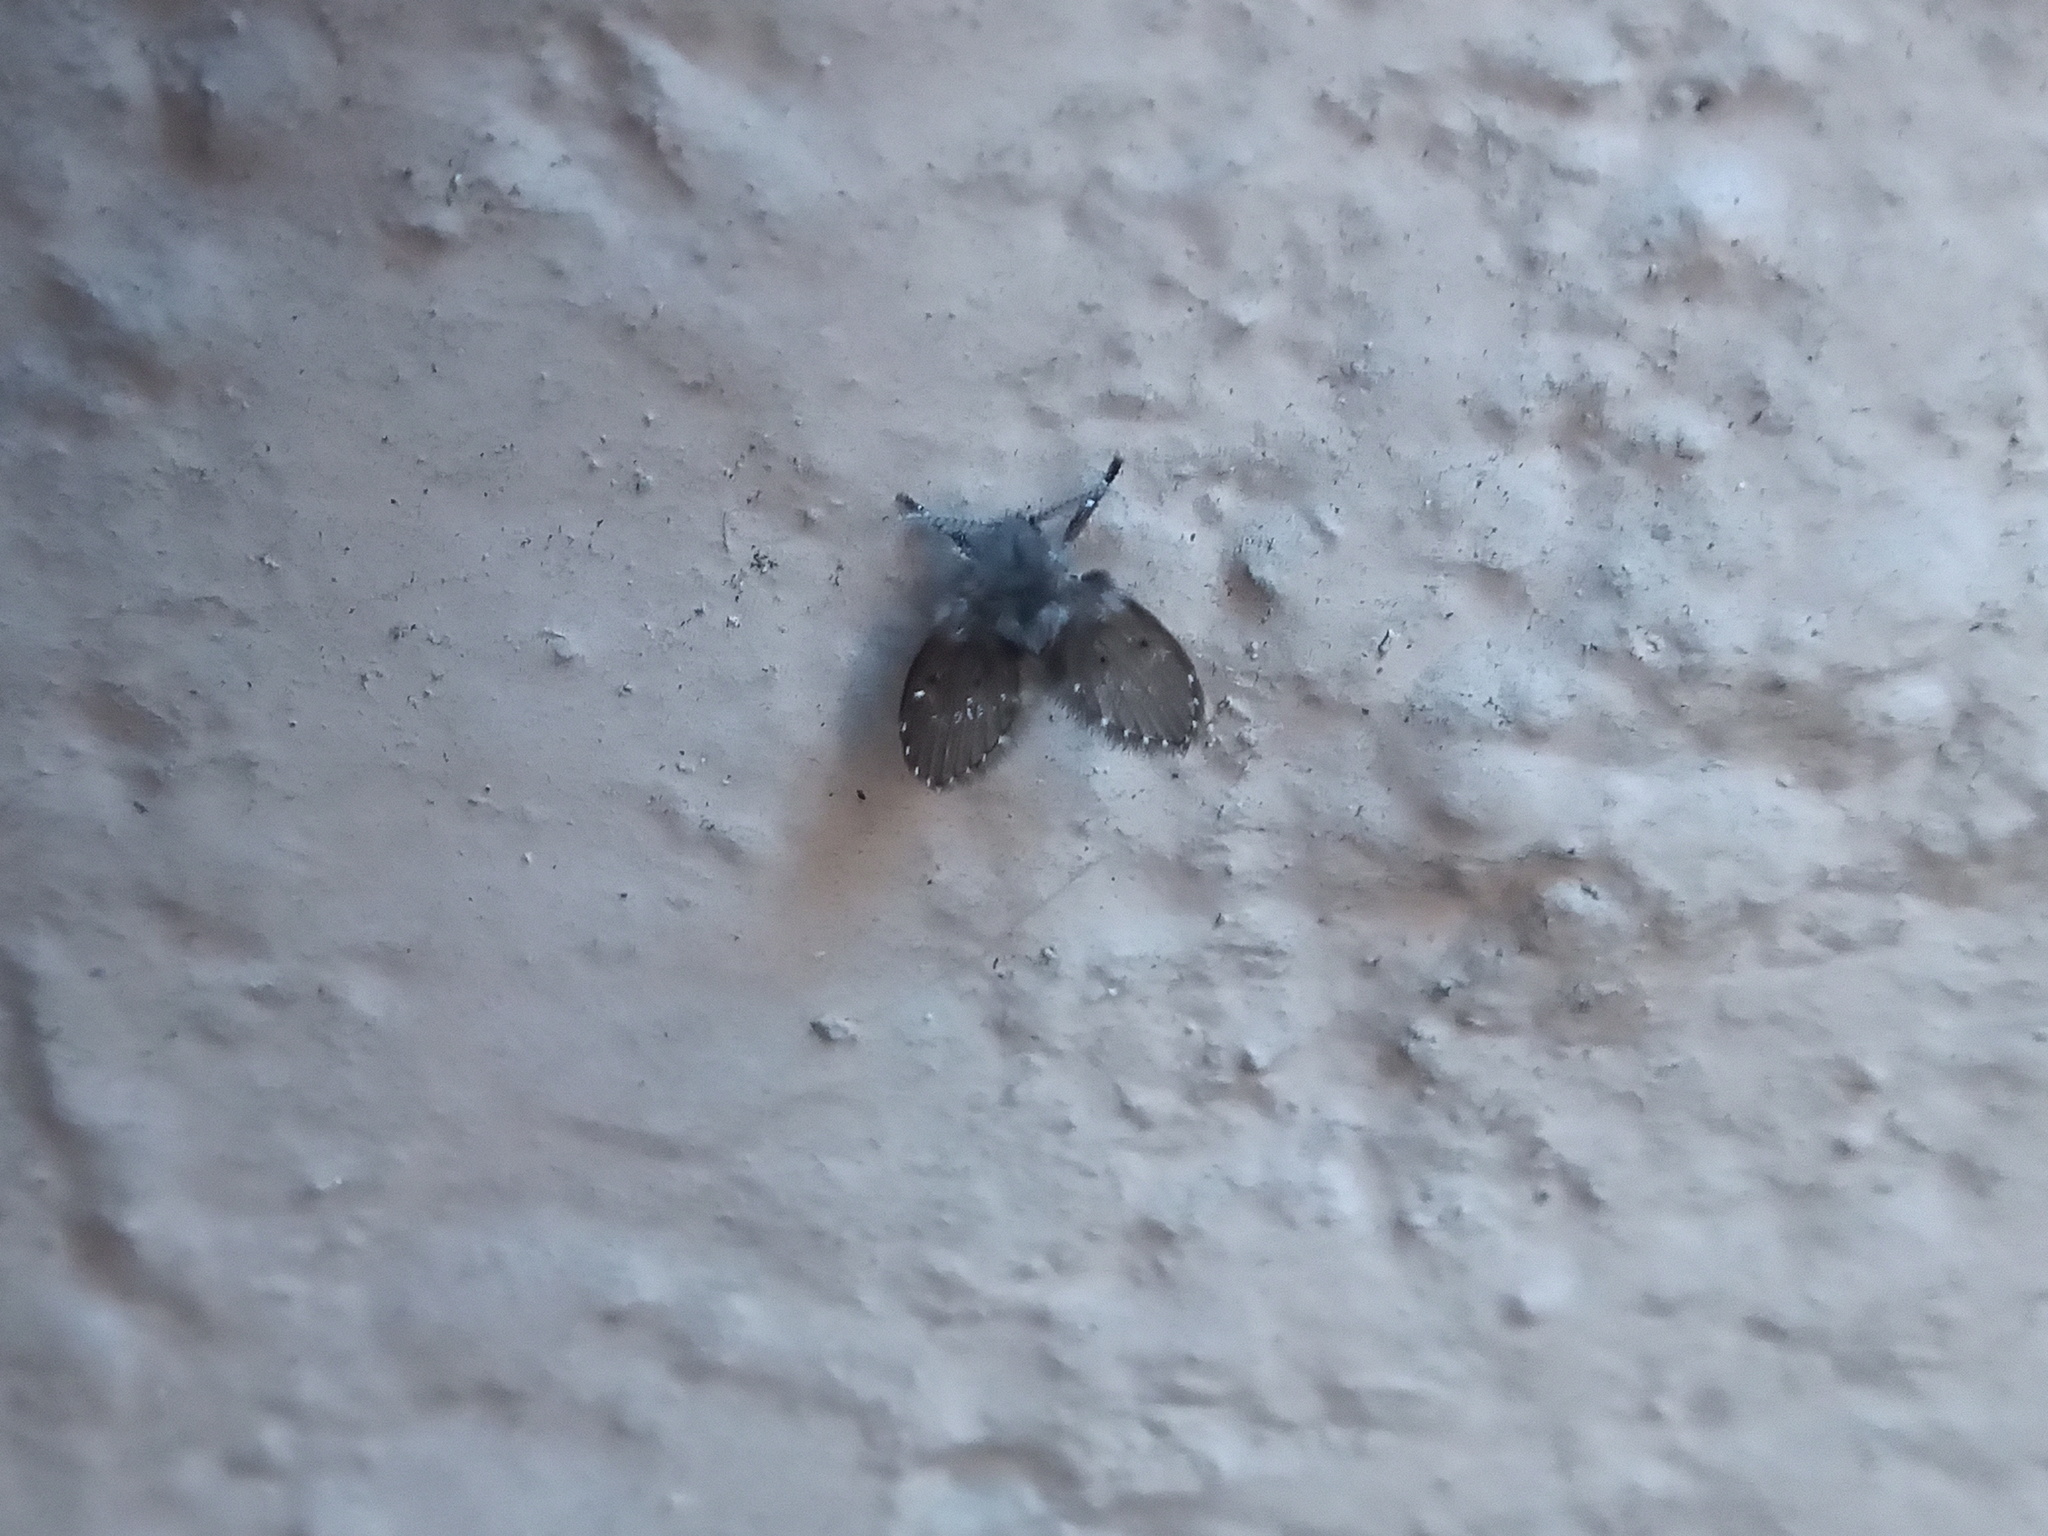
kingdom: Animalia
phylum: Arthropoda
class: Insecta
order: Diptera
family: Psychodidae
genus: Clogmia
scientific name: Clogmia albipunctatus
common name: White-spotted moth fly
